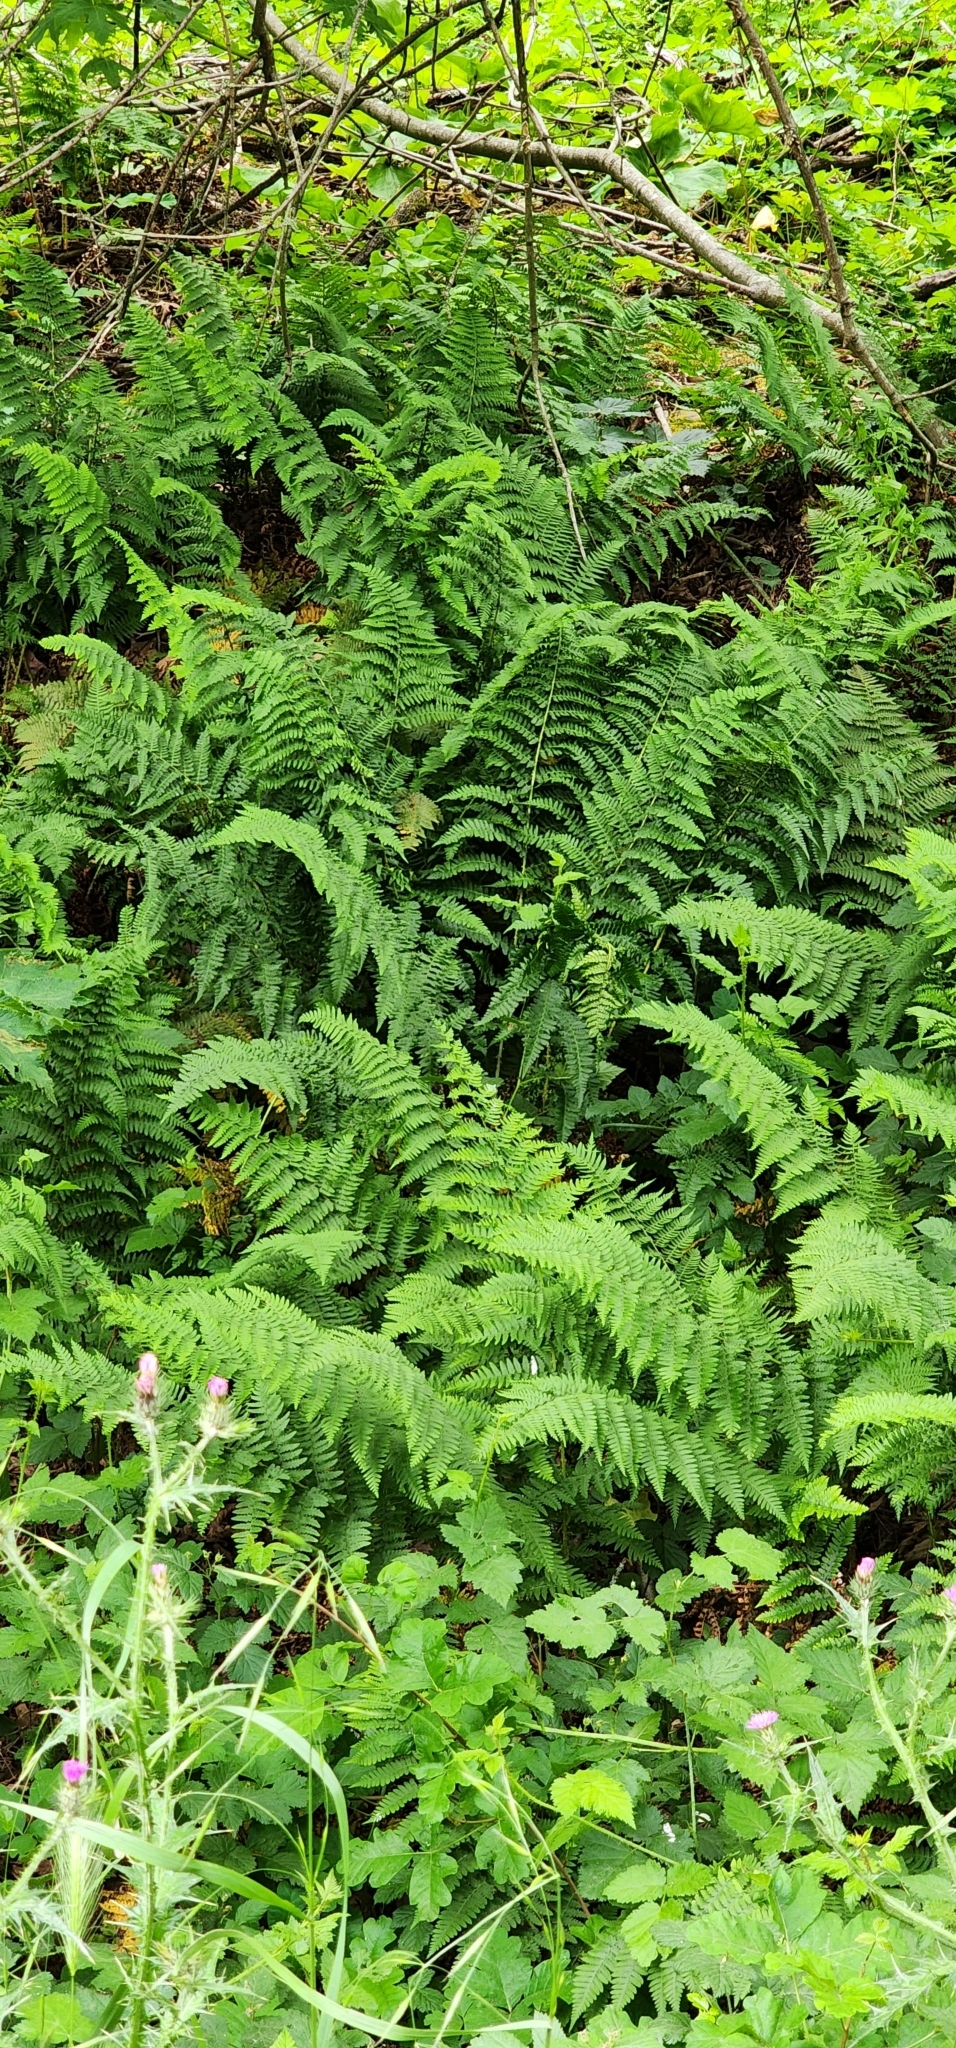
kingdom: Plantae
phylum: Tracheophyta
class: Polypodiopsida
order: Polypodiales
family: Dryopteridaceae
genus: Dryopteris
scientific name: Dryopteris arguta
